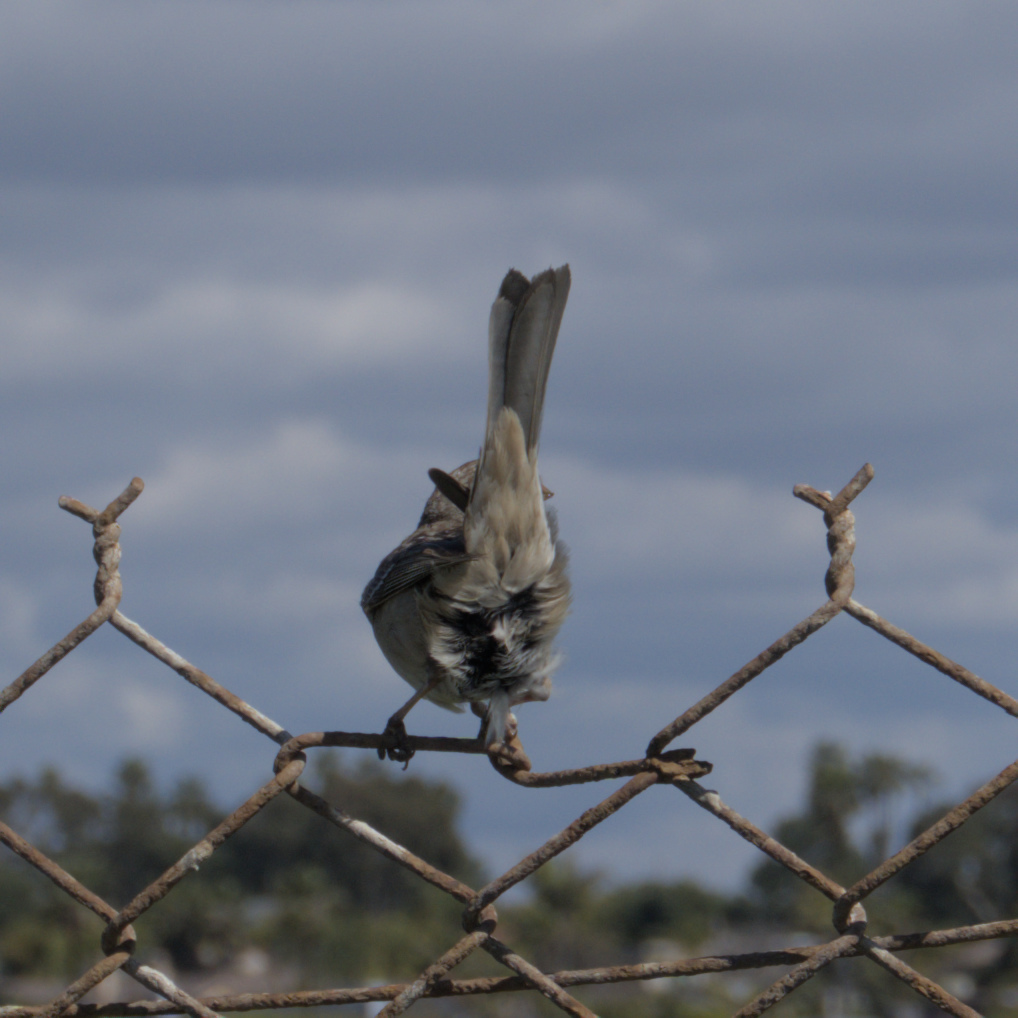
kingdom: Animalia
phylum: Chordata
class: Aves
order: Passeriformes
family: Passerellidae
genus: Zonotrichia
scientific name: Zonotrichia leucophrys
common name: White-crowned sparrow
